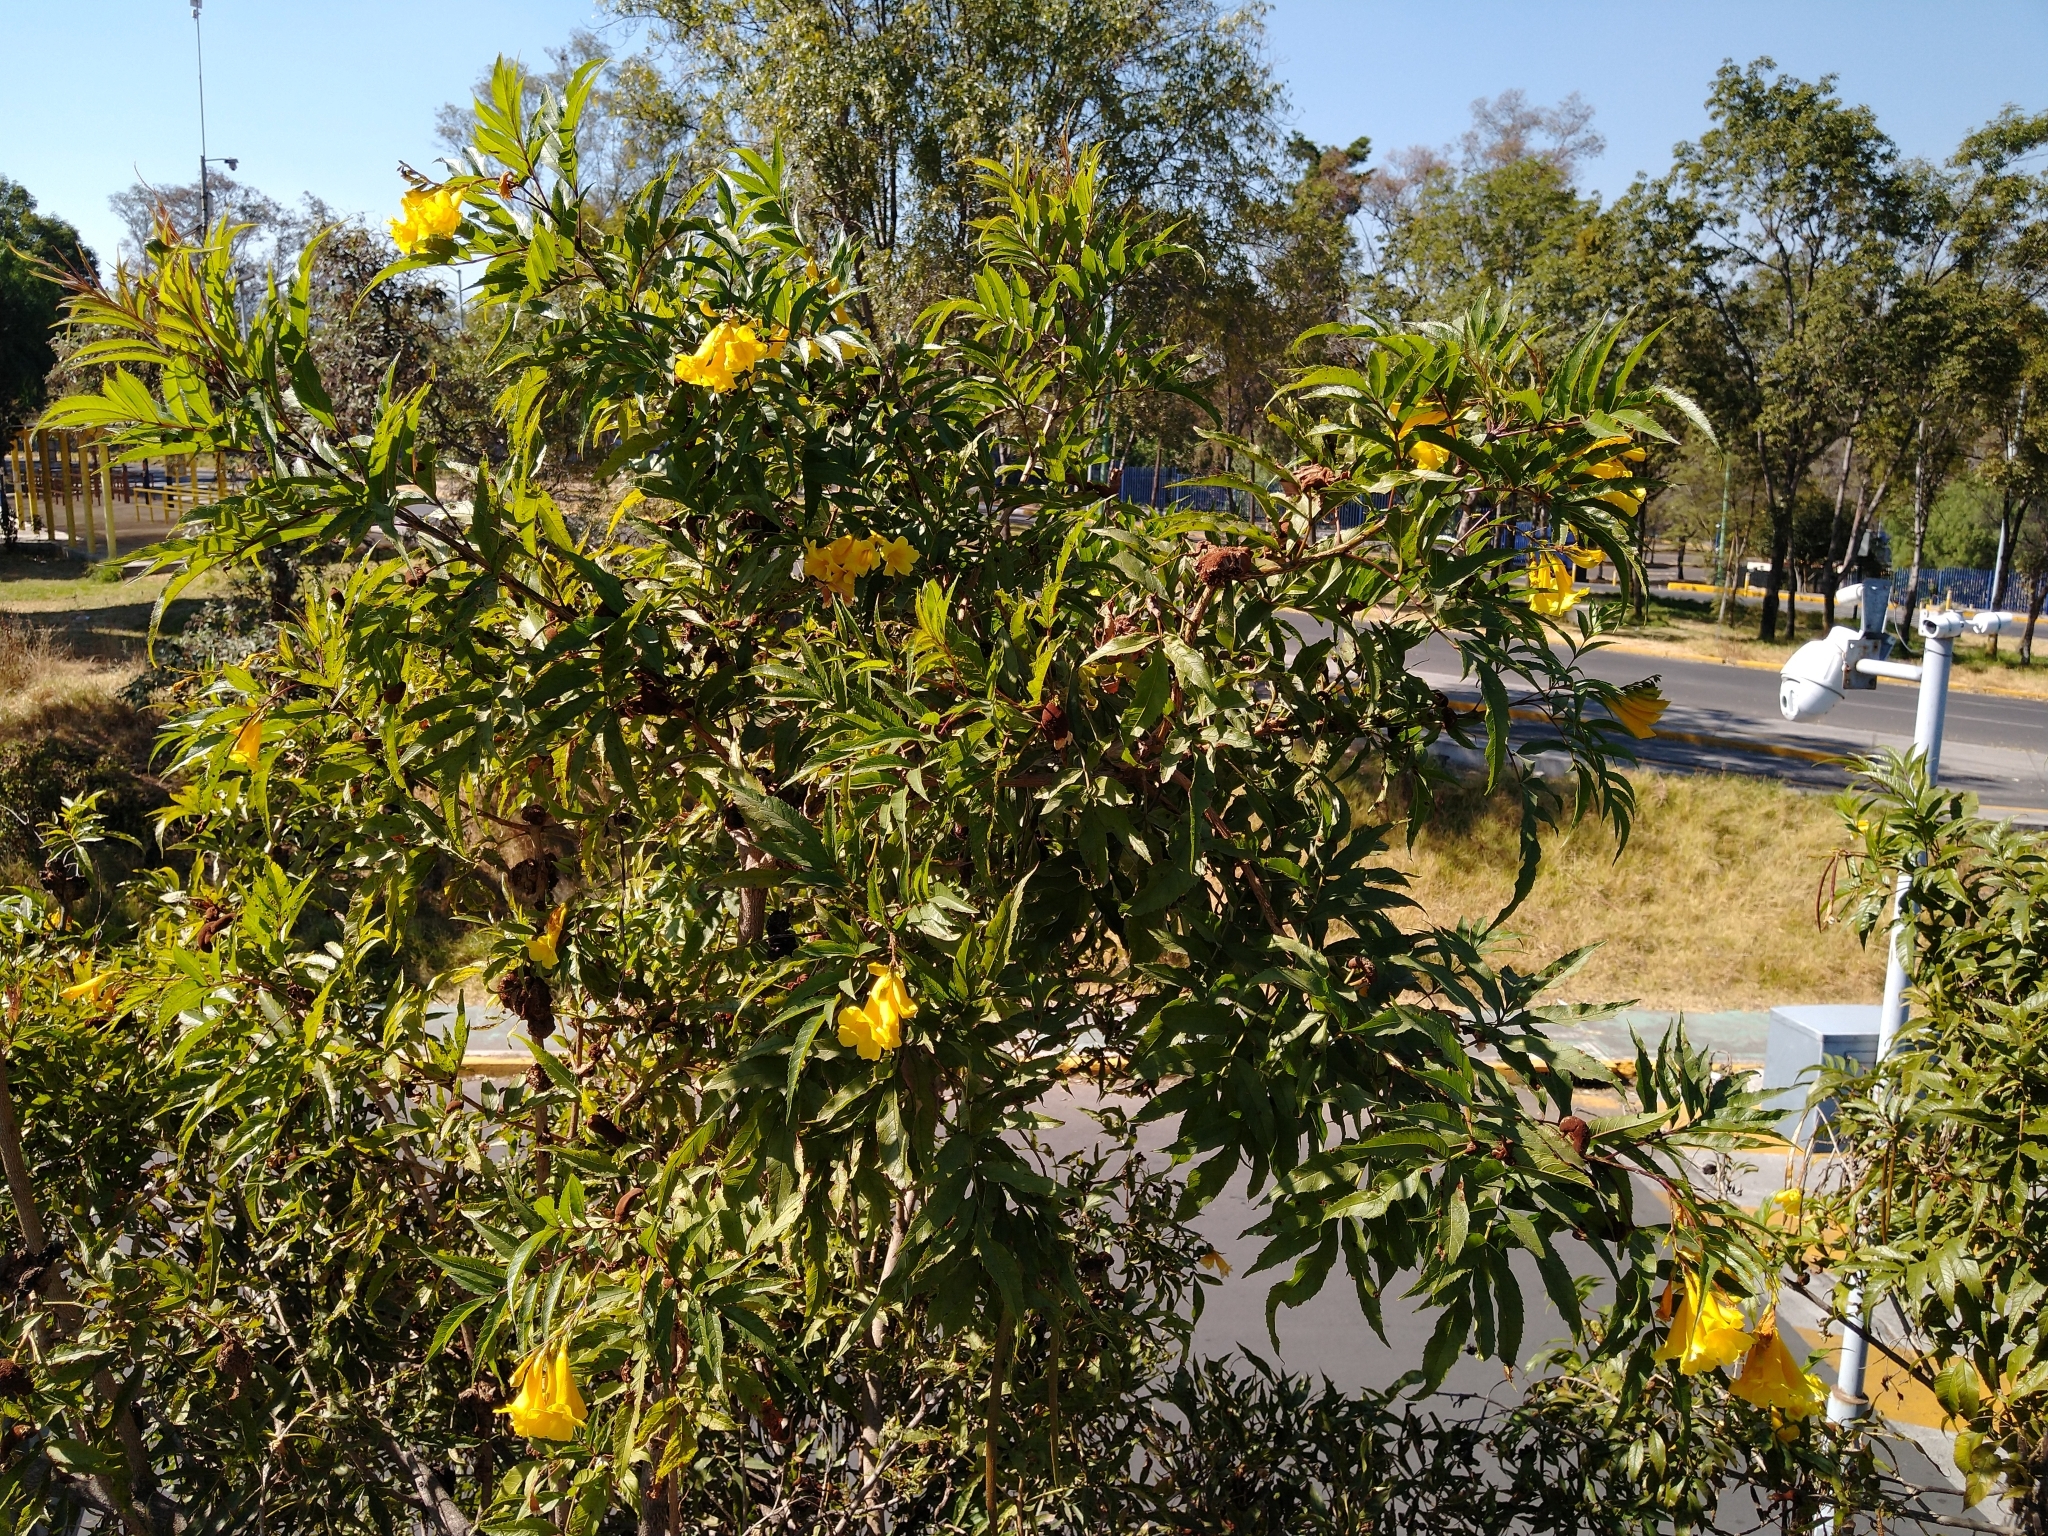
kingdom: Plantae
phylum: Tracheophyta
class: Magnoliopsida
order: Lamiales
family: Bignoniaceae
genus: Tecoma
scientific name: Tecoma stans
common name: Yellow trumpetbush
